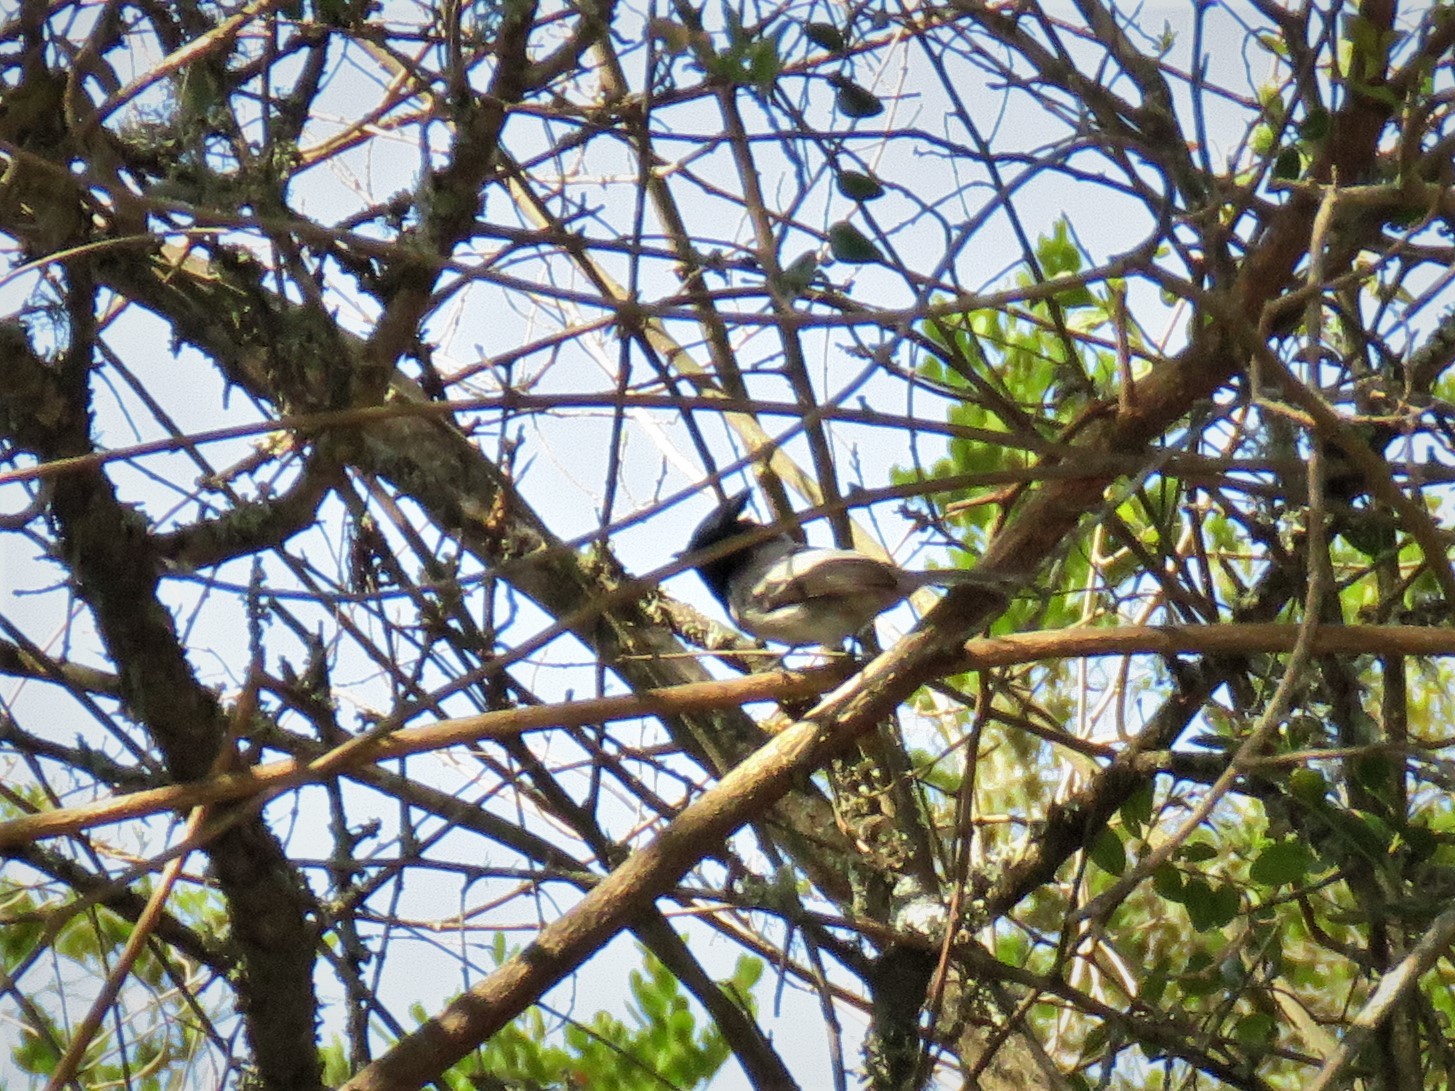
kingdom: Animalia
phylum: Chordata
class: Aves
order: Passeriformes
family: Monarchidae
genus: Trochocercus
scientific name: Trochocercus cyanomelas
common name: Blue-mantled crested flycatcher
